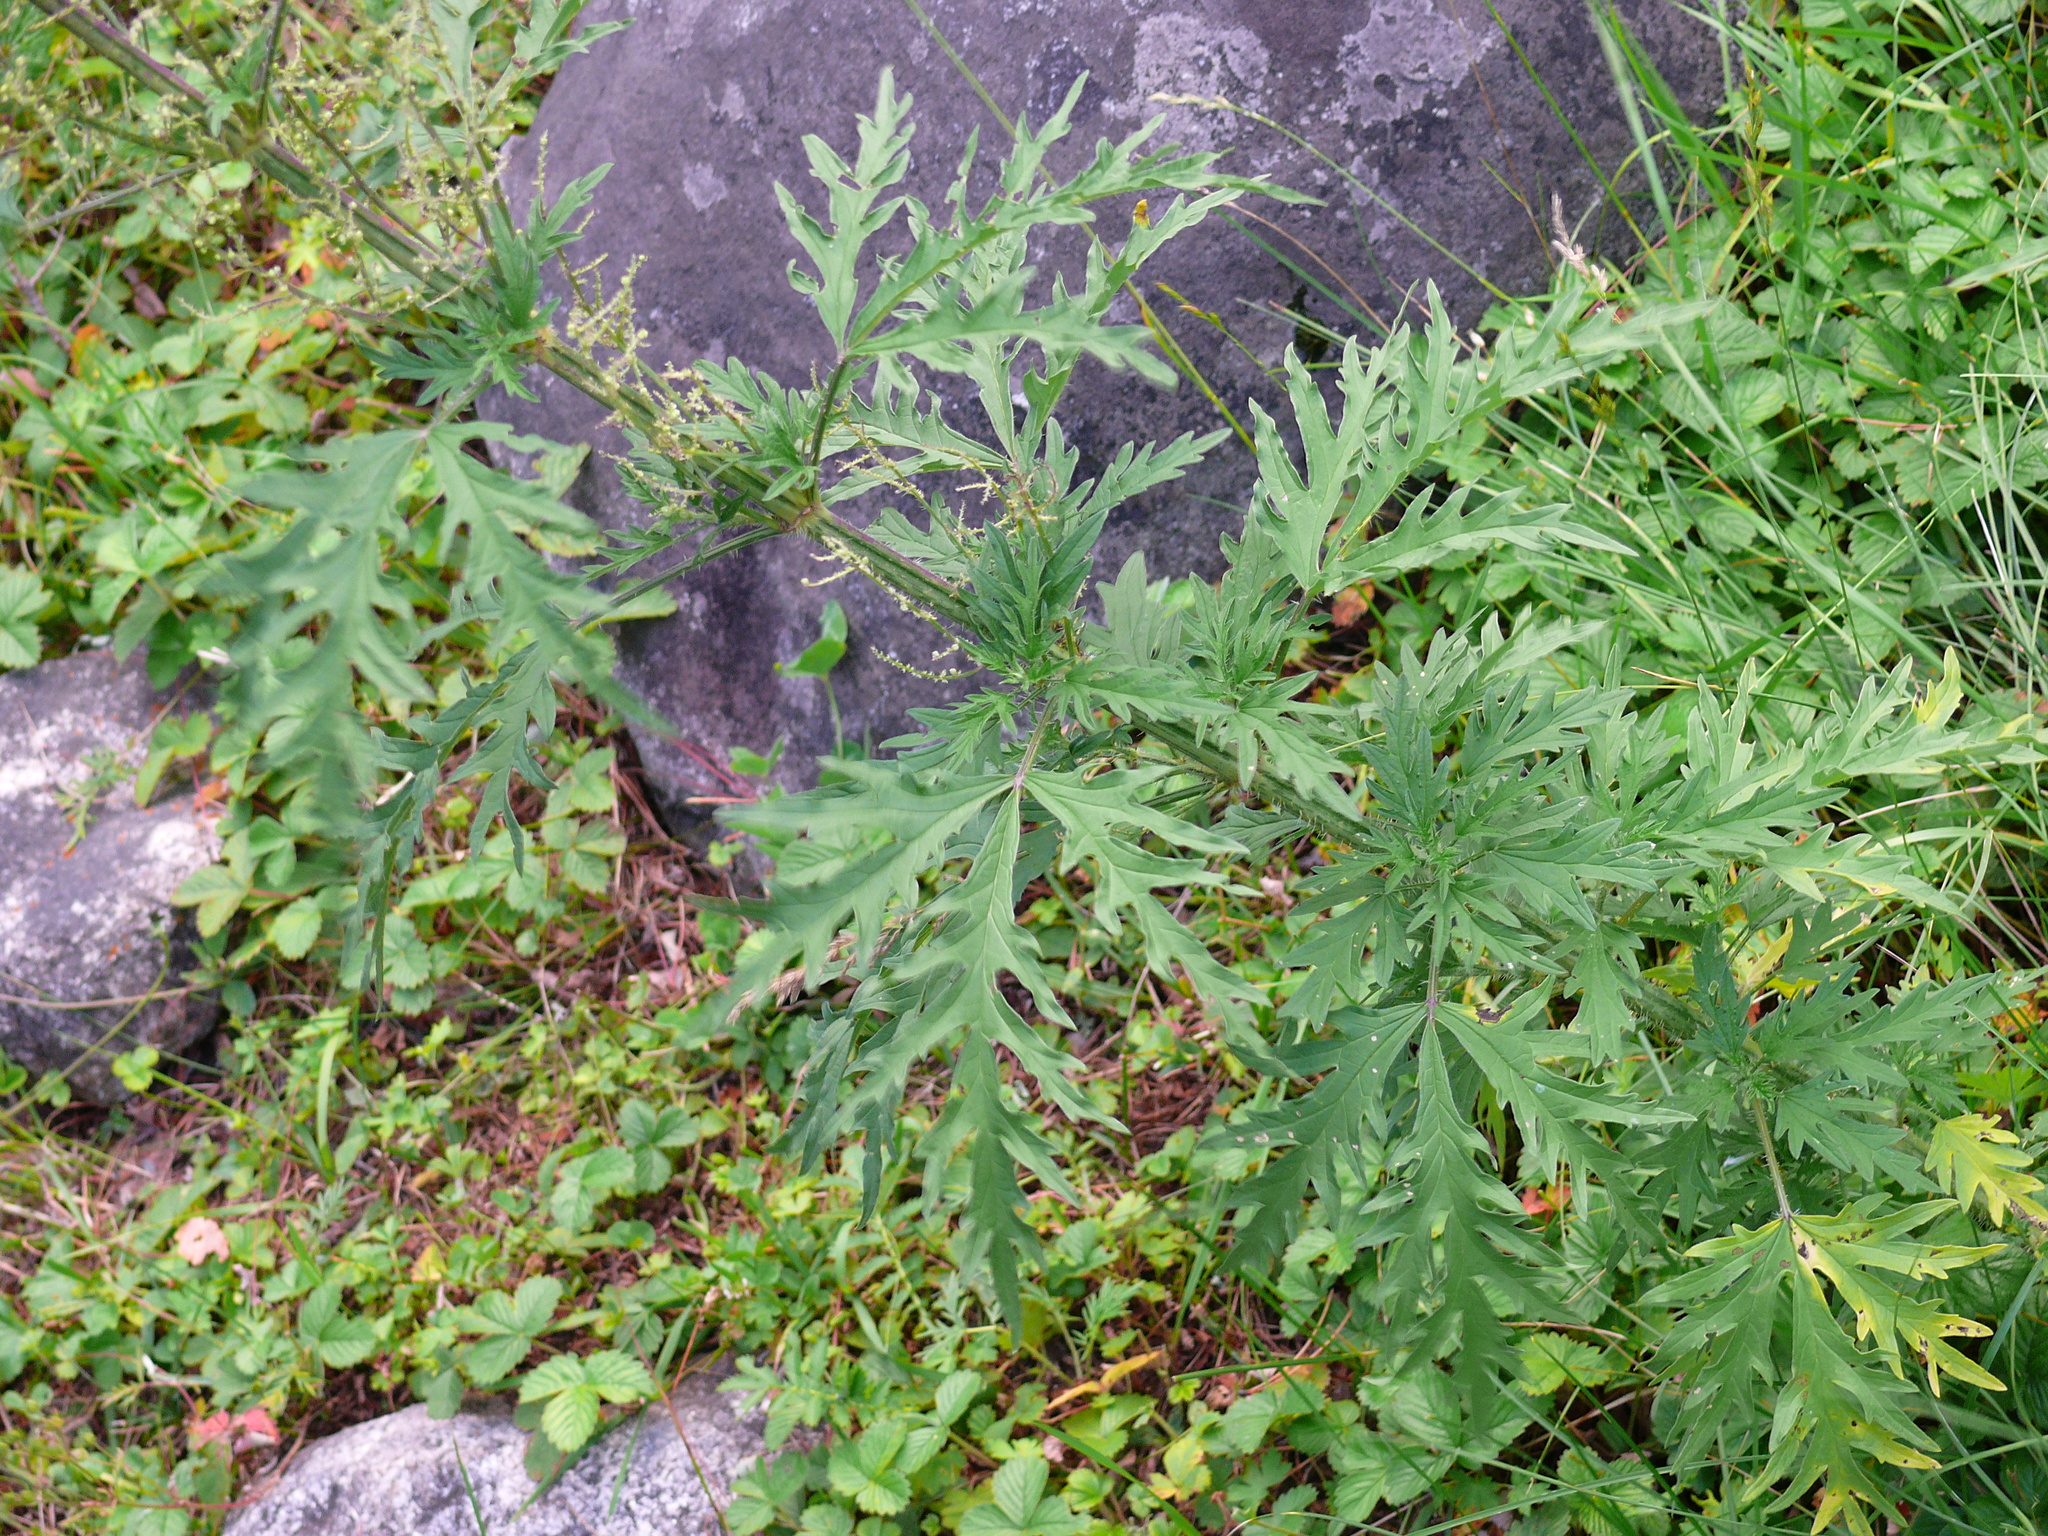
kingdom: Plantae
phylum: Tracheophyta
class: Magnoliopsida
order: Rosales
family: Urticaceae
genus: Urtica
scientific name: Urtica cannabina
